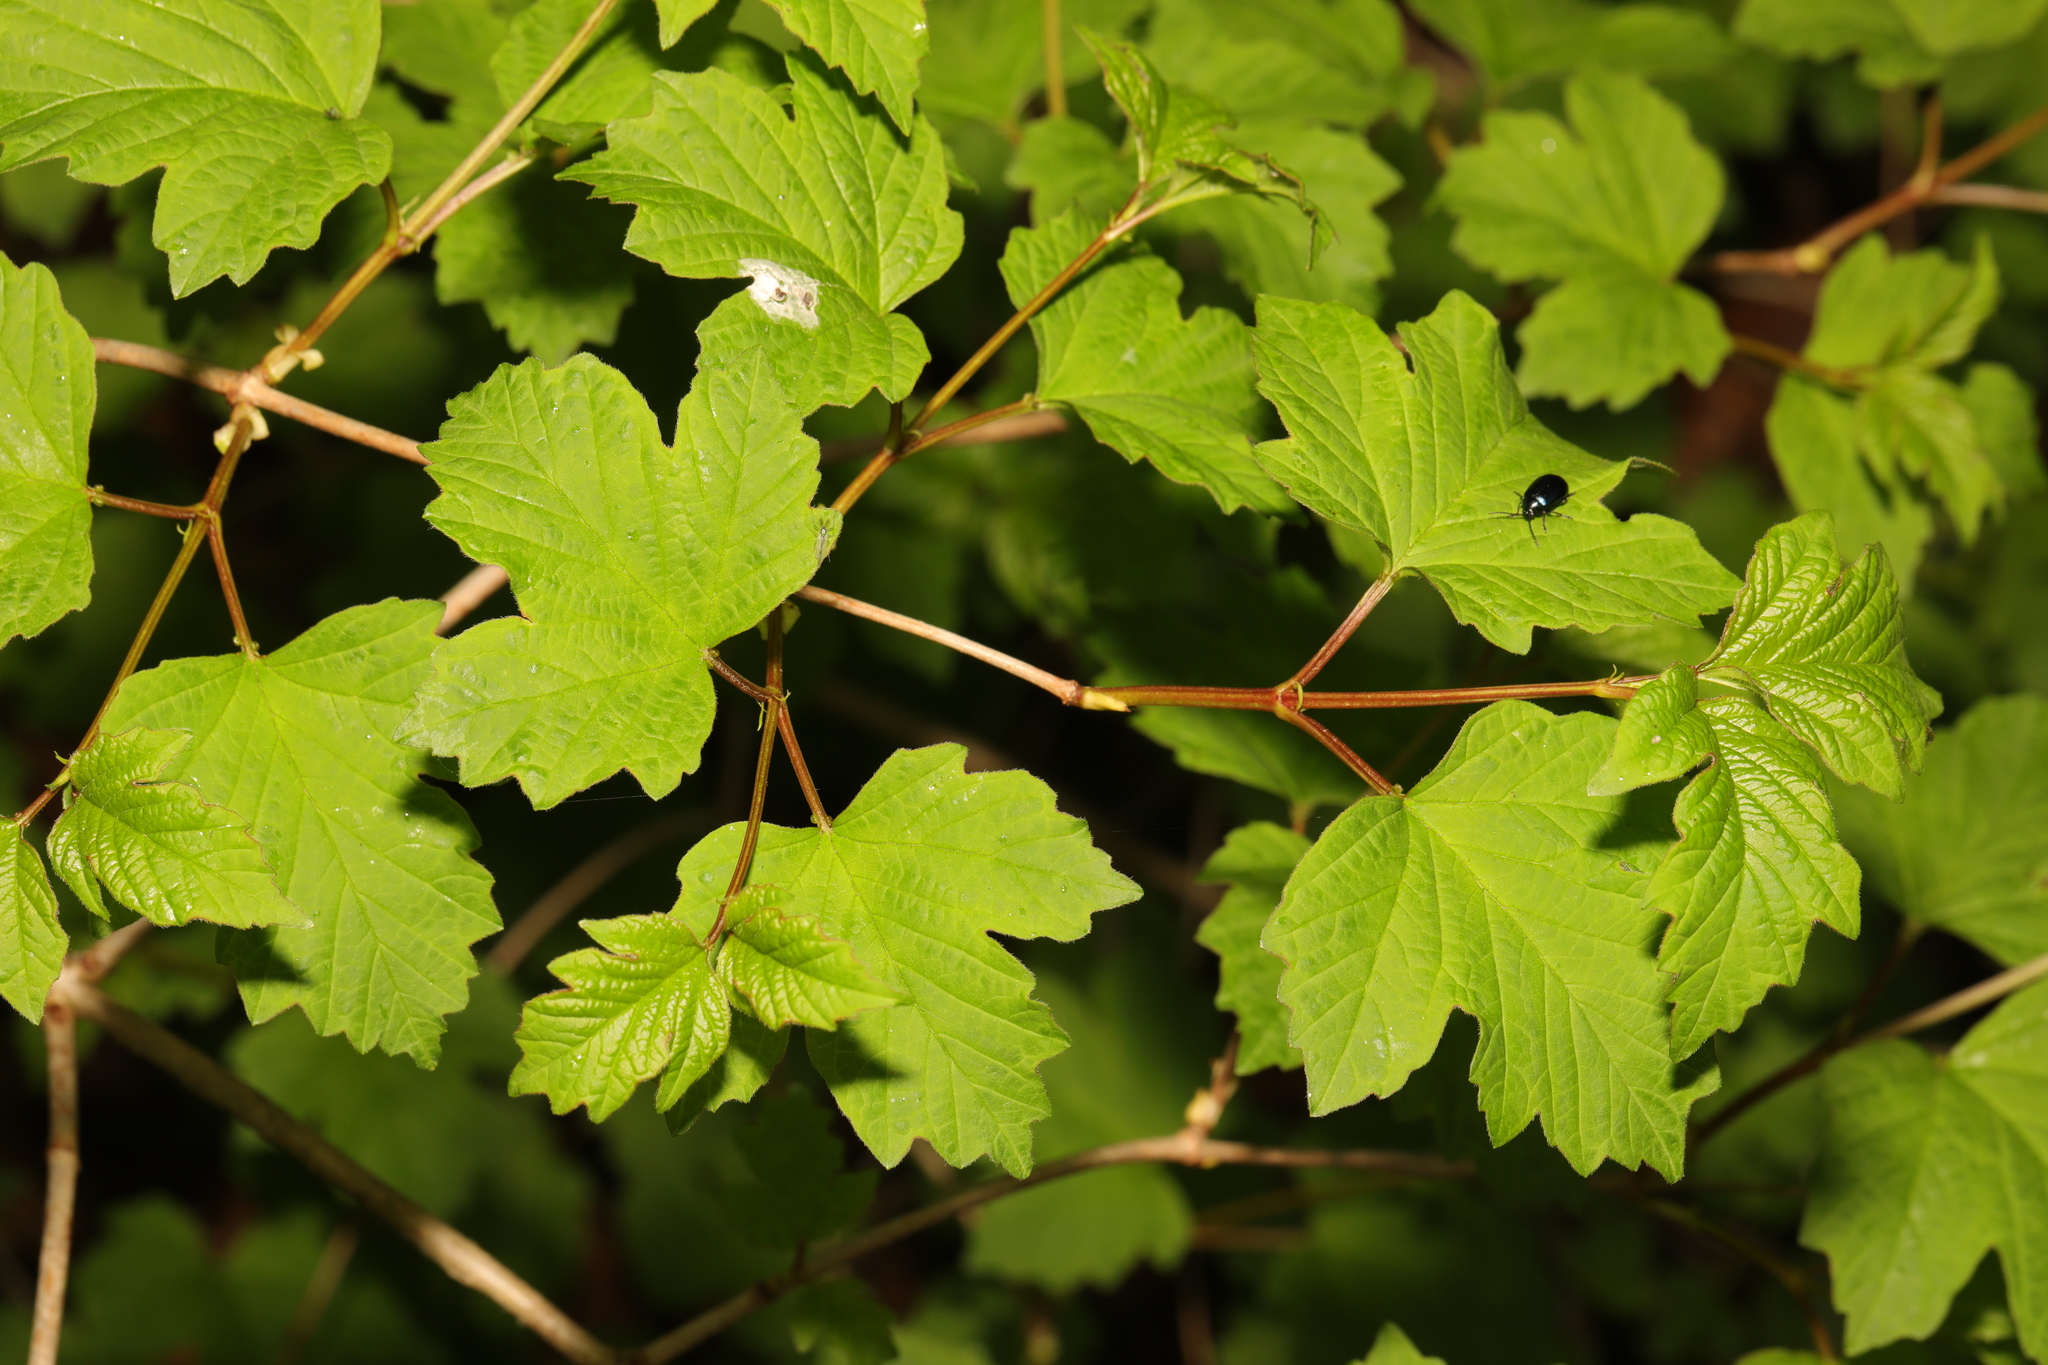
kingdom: Plantae
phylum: Tracheophyta
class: Magnoliopsida
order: Dipsacales
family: Viburnaceae
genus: Viburnum
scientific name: Viburnum opulus
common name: Guelder-rose
